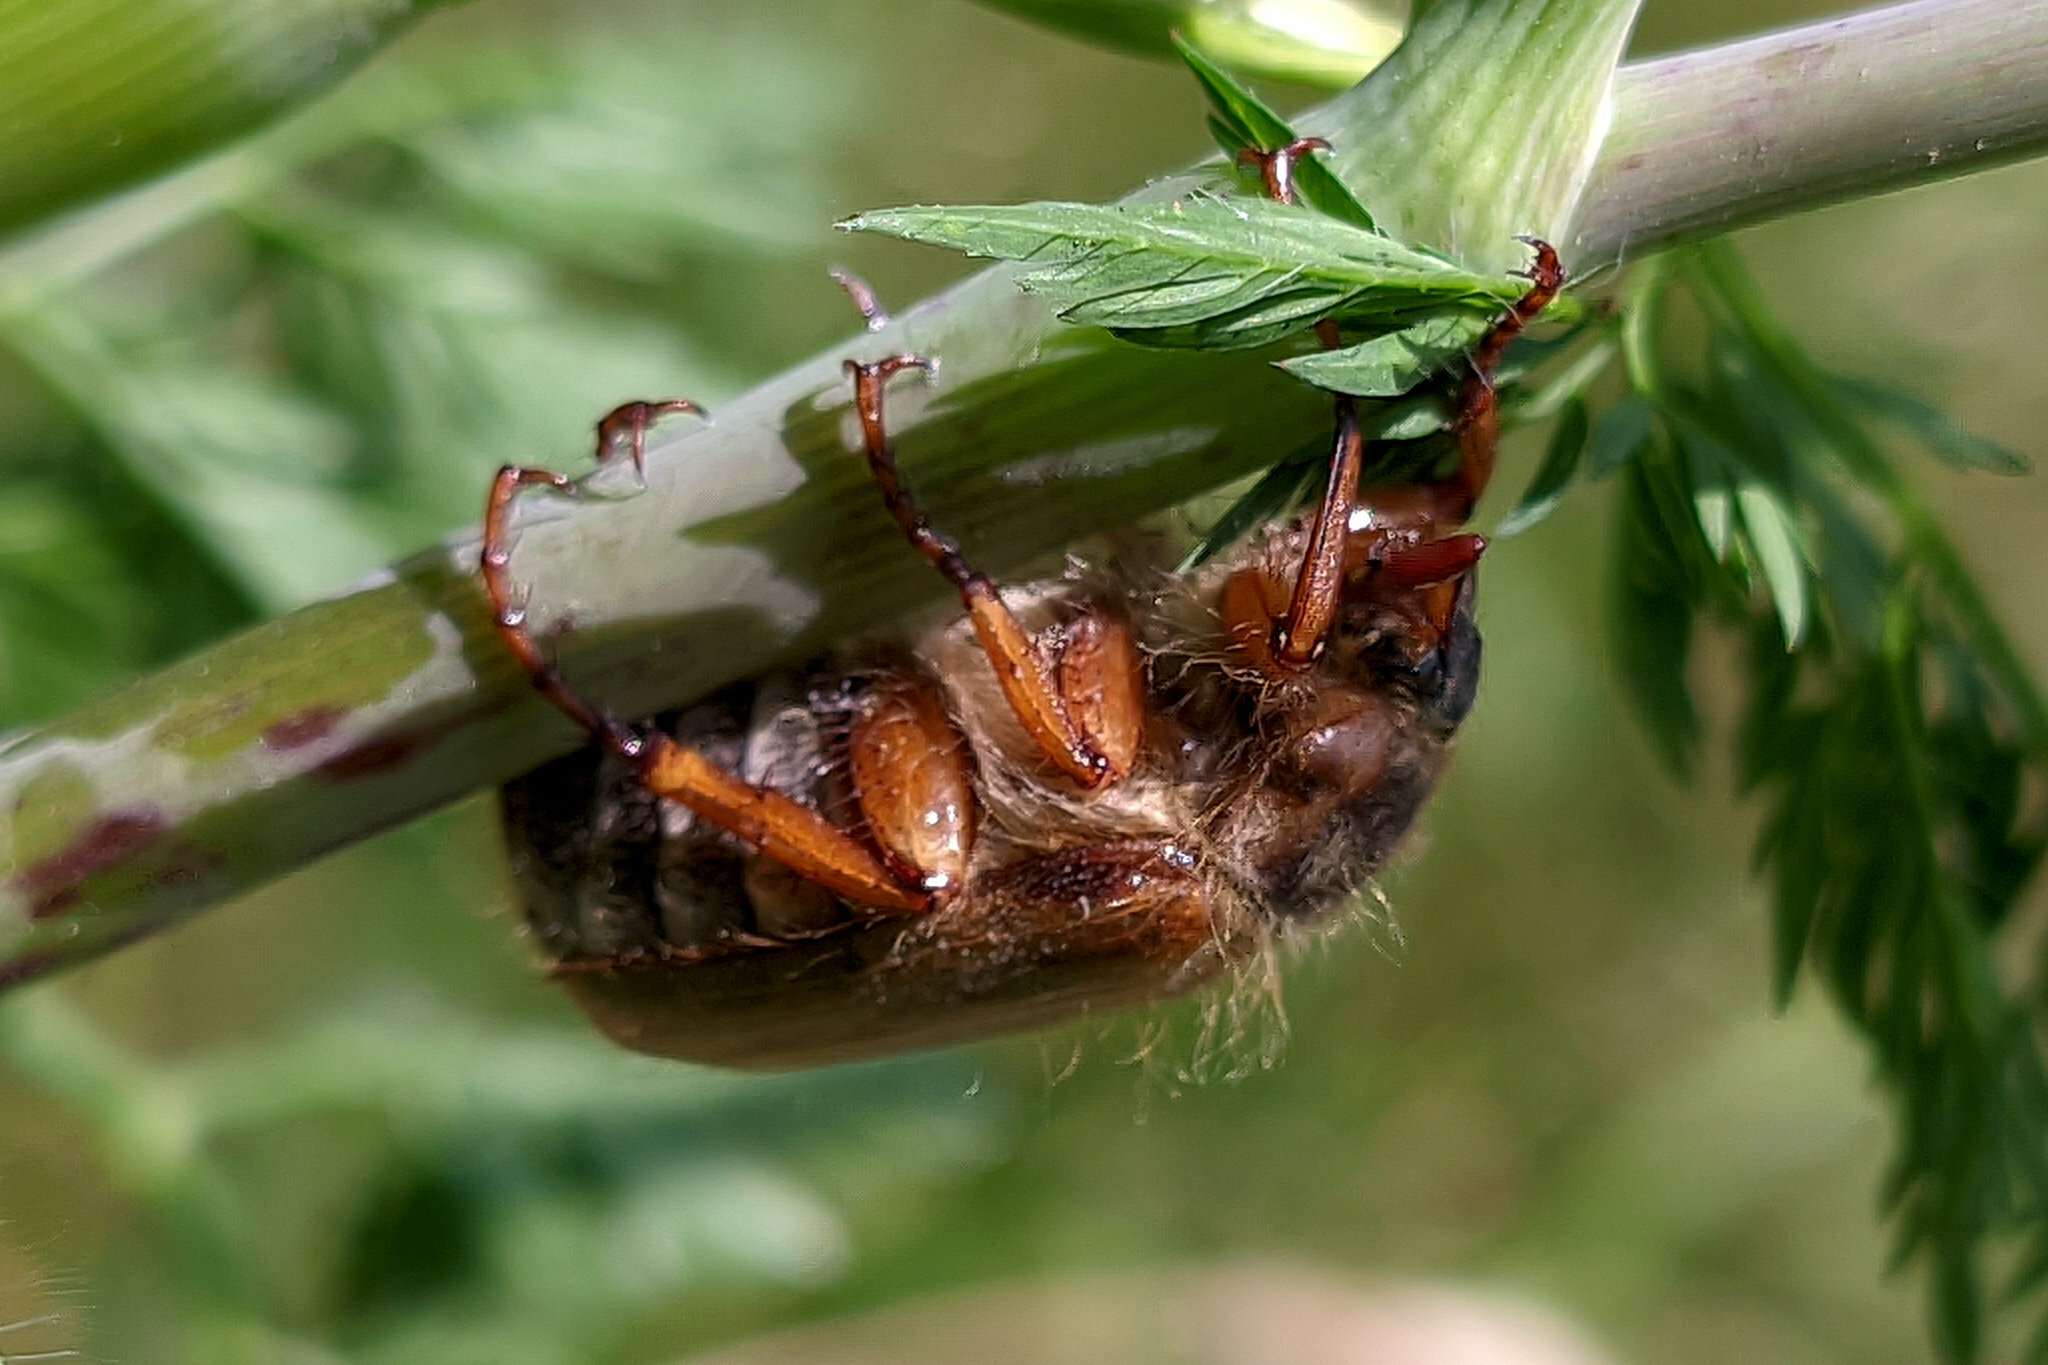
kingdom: Animalia
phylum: Arthropoda
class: Insecta
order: Coleoptera
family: Scarabaeidae
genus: Amphimallon
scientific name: Amphimallon solstitiale
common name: Summer chafer
